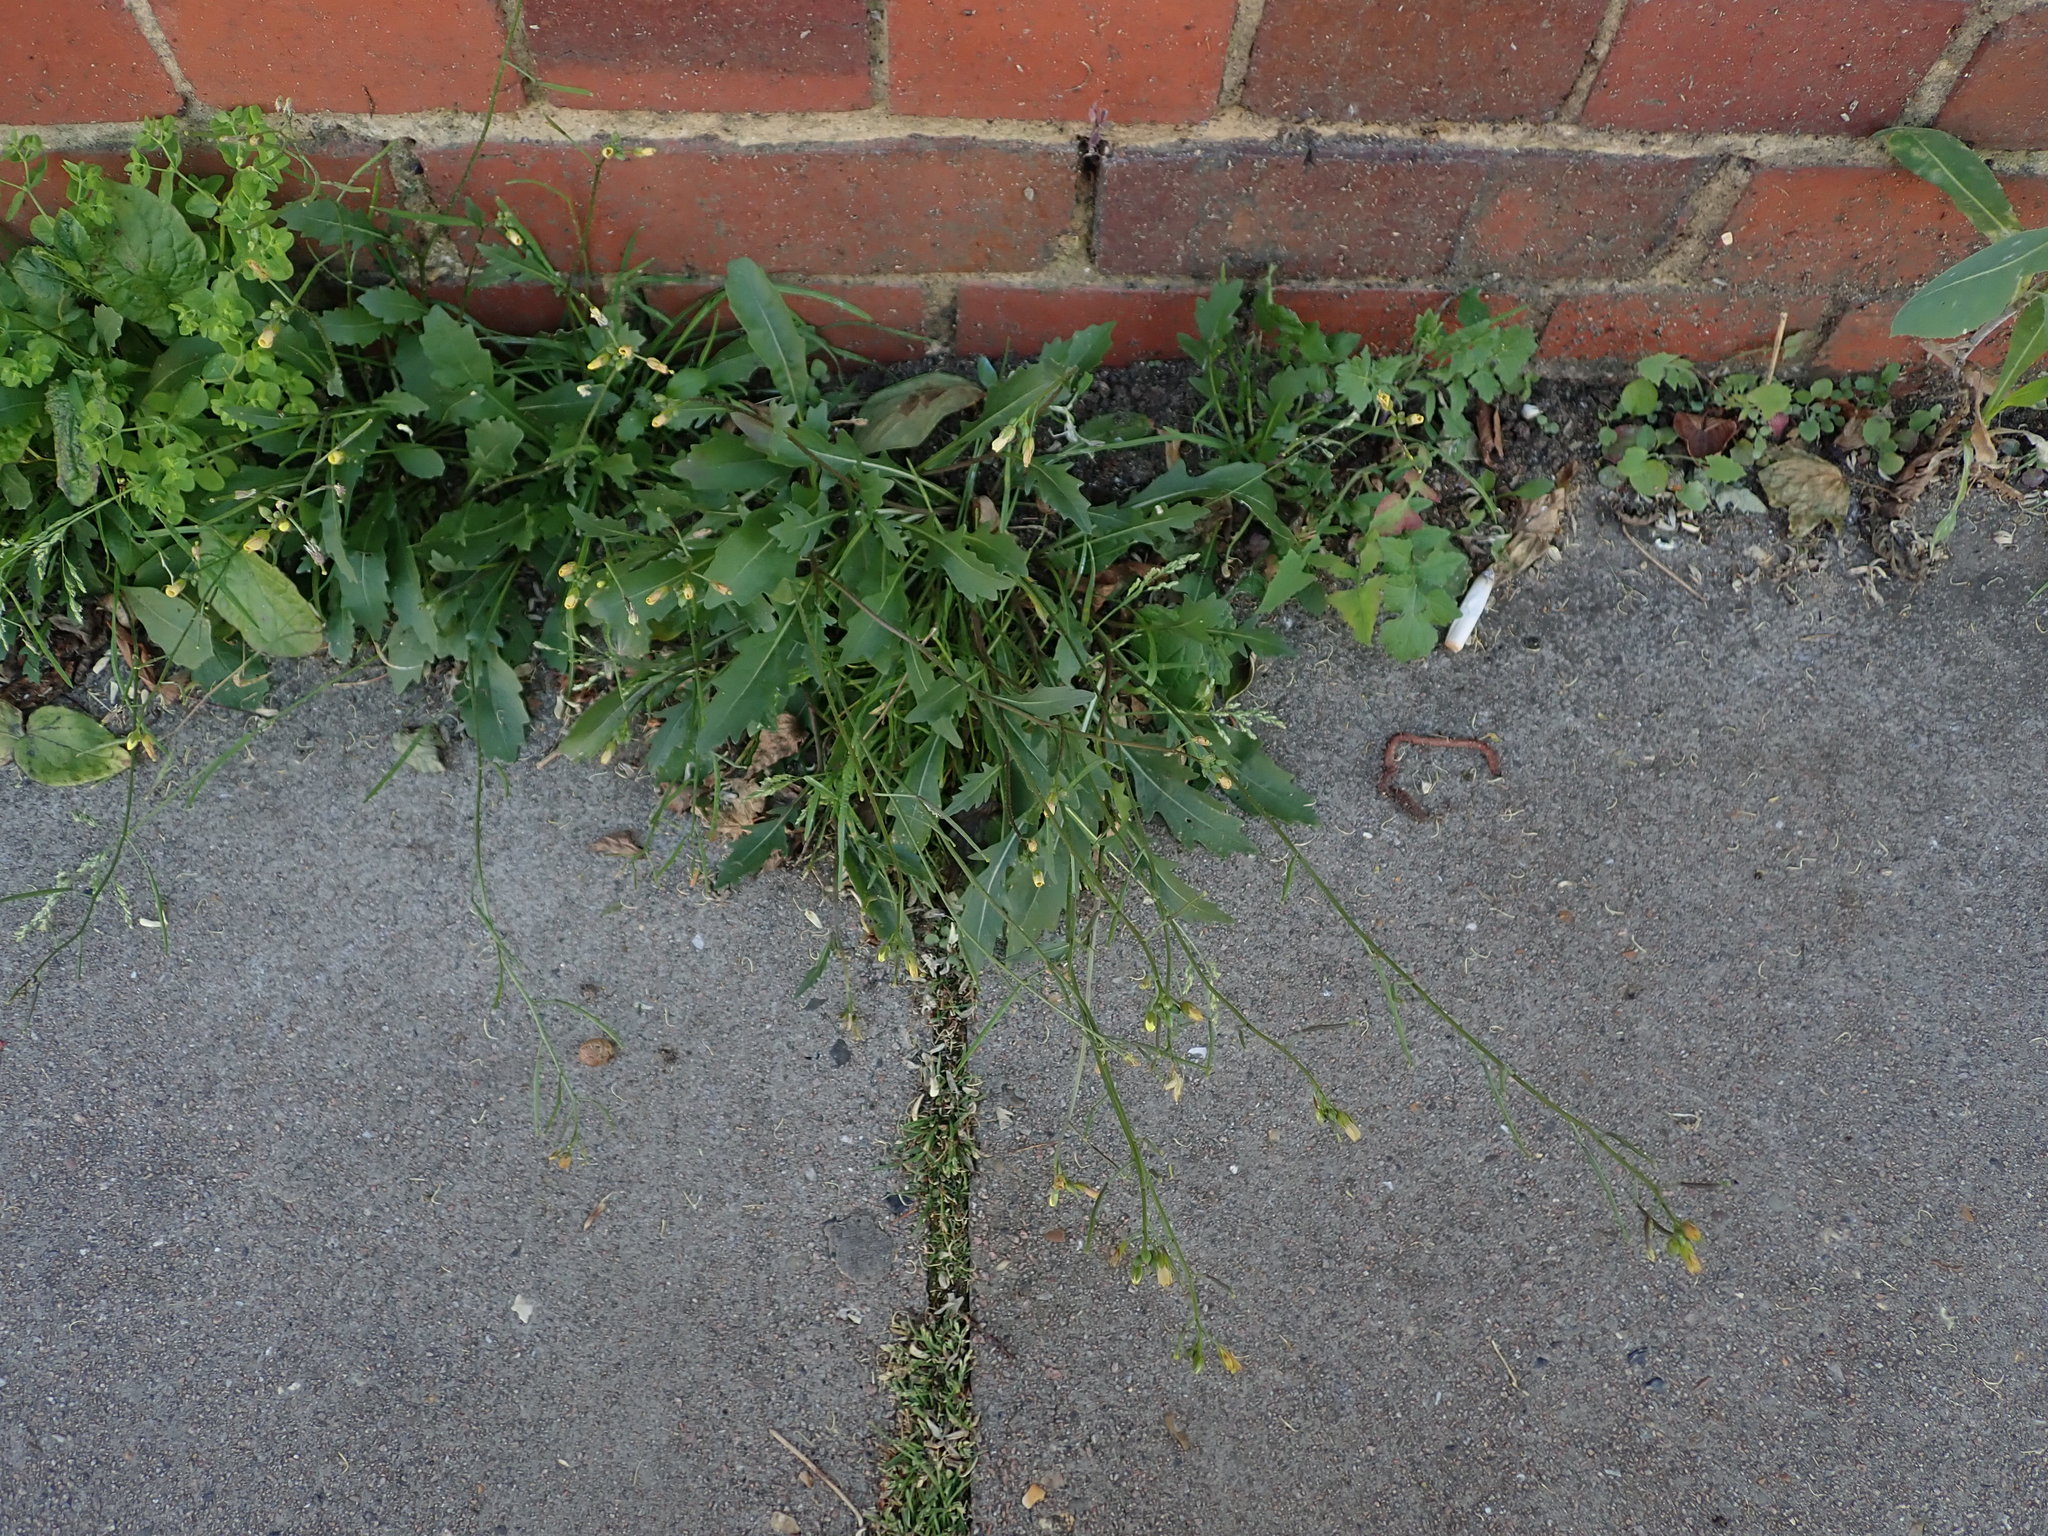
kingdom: Plantae
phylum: Tracheophyta
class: Magnoliopsida
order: Brassicales
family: Brassicaceae
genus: Diplotaxis
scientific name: Diplotaxis muralis
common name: Annual wall-rocket
